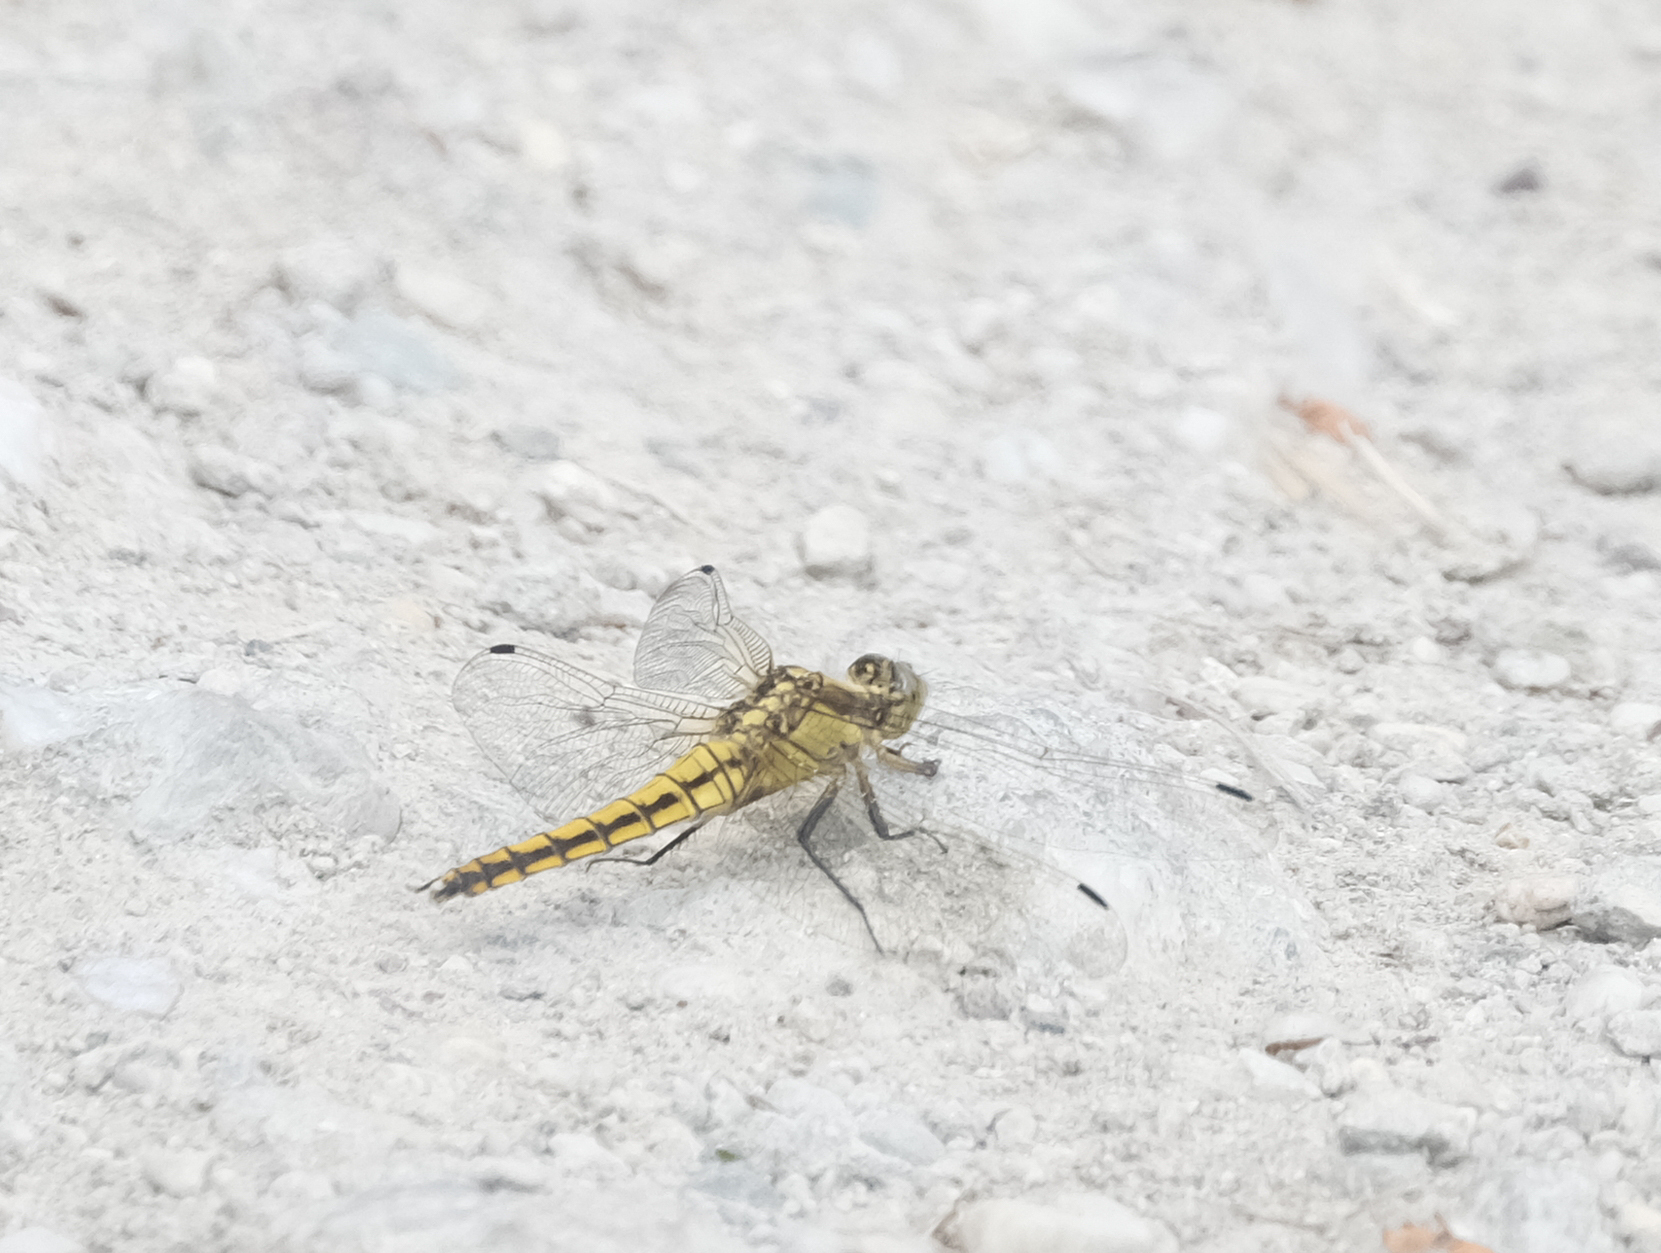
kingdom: Animalia
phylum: Arthropoda
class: Insecta
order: Odonata
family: Libellulidae
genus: Orthetrum
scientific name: Orthetrum cancellatum
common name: Black-tailed skimmer
